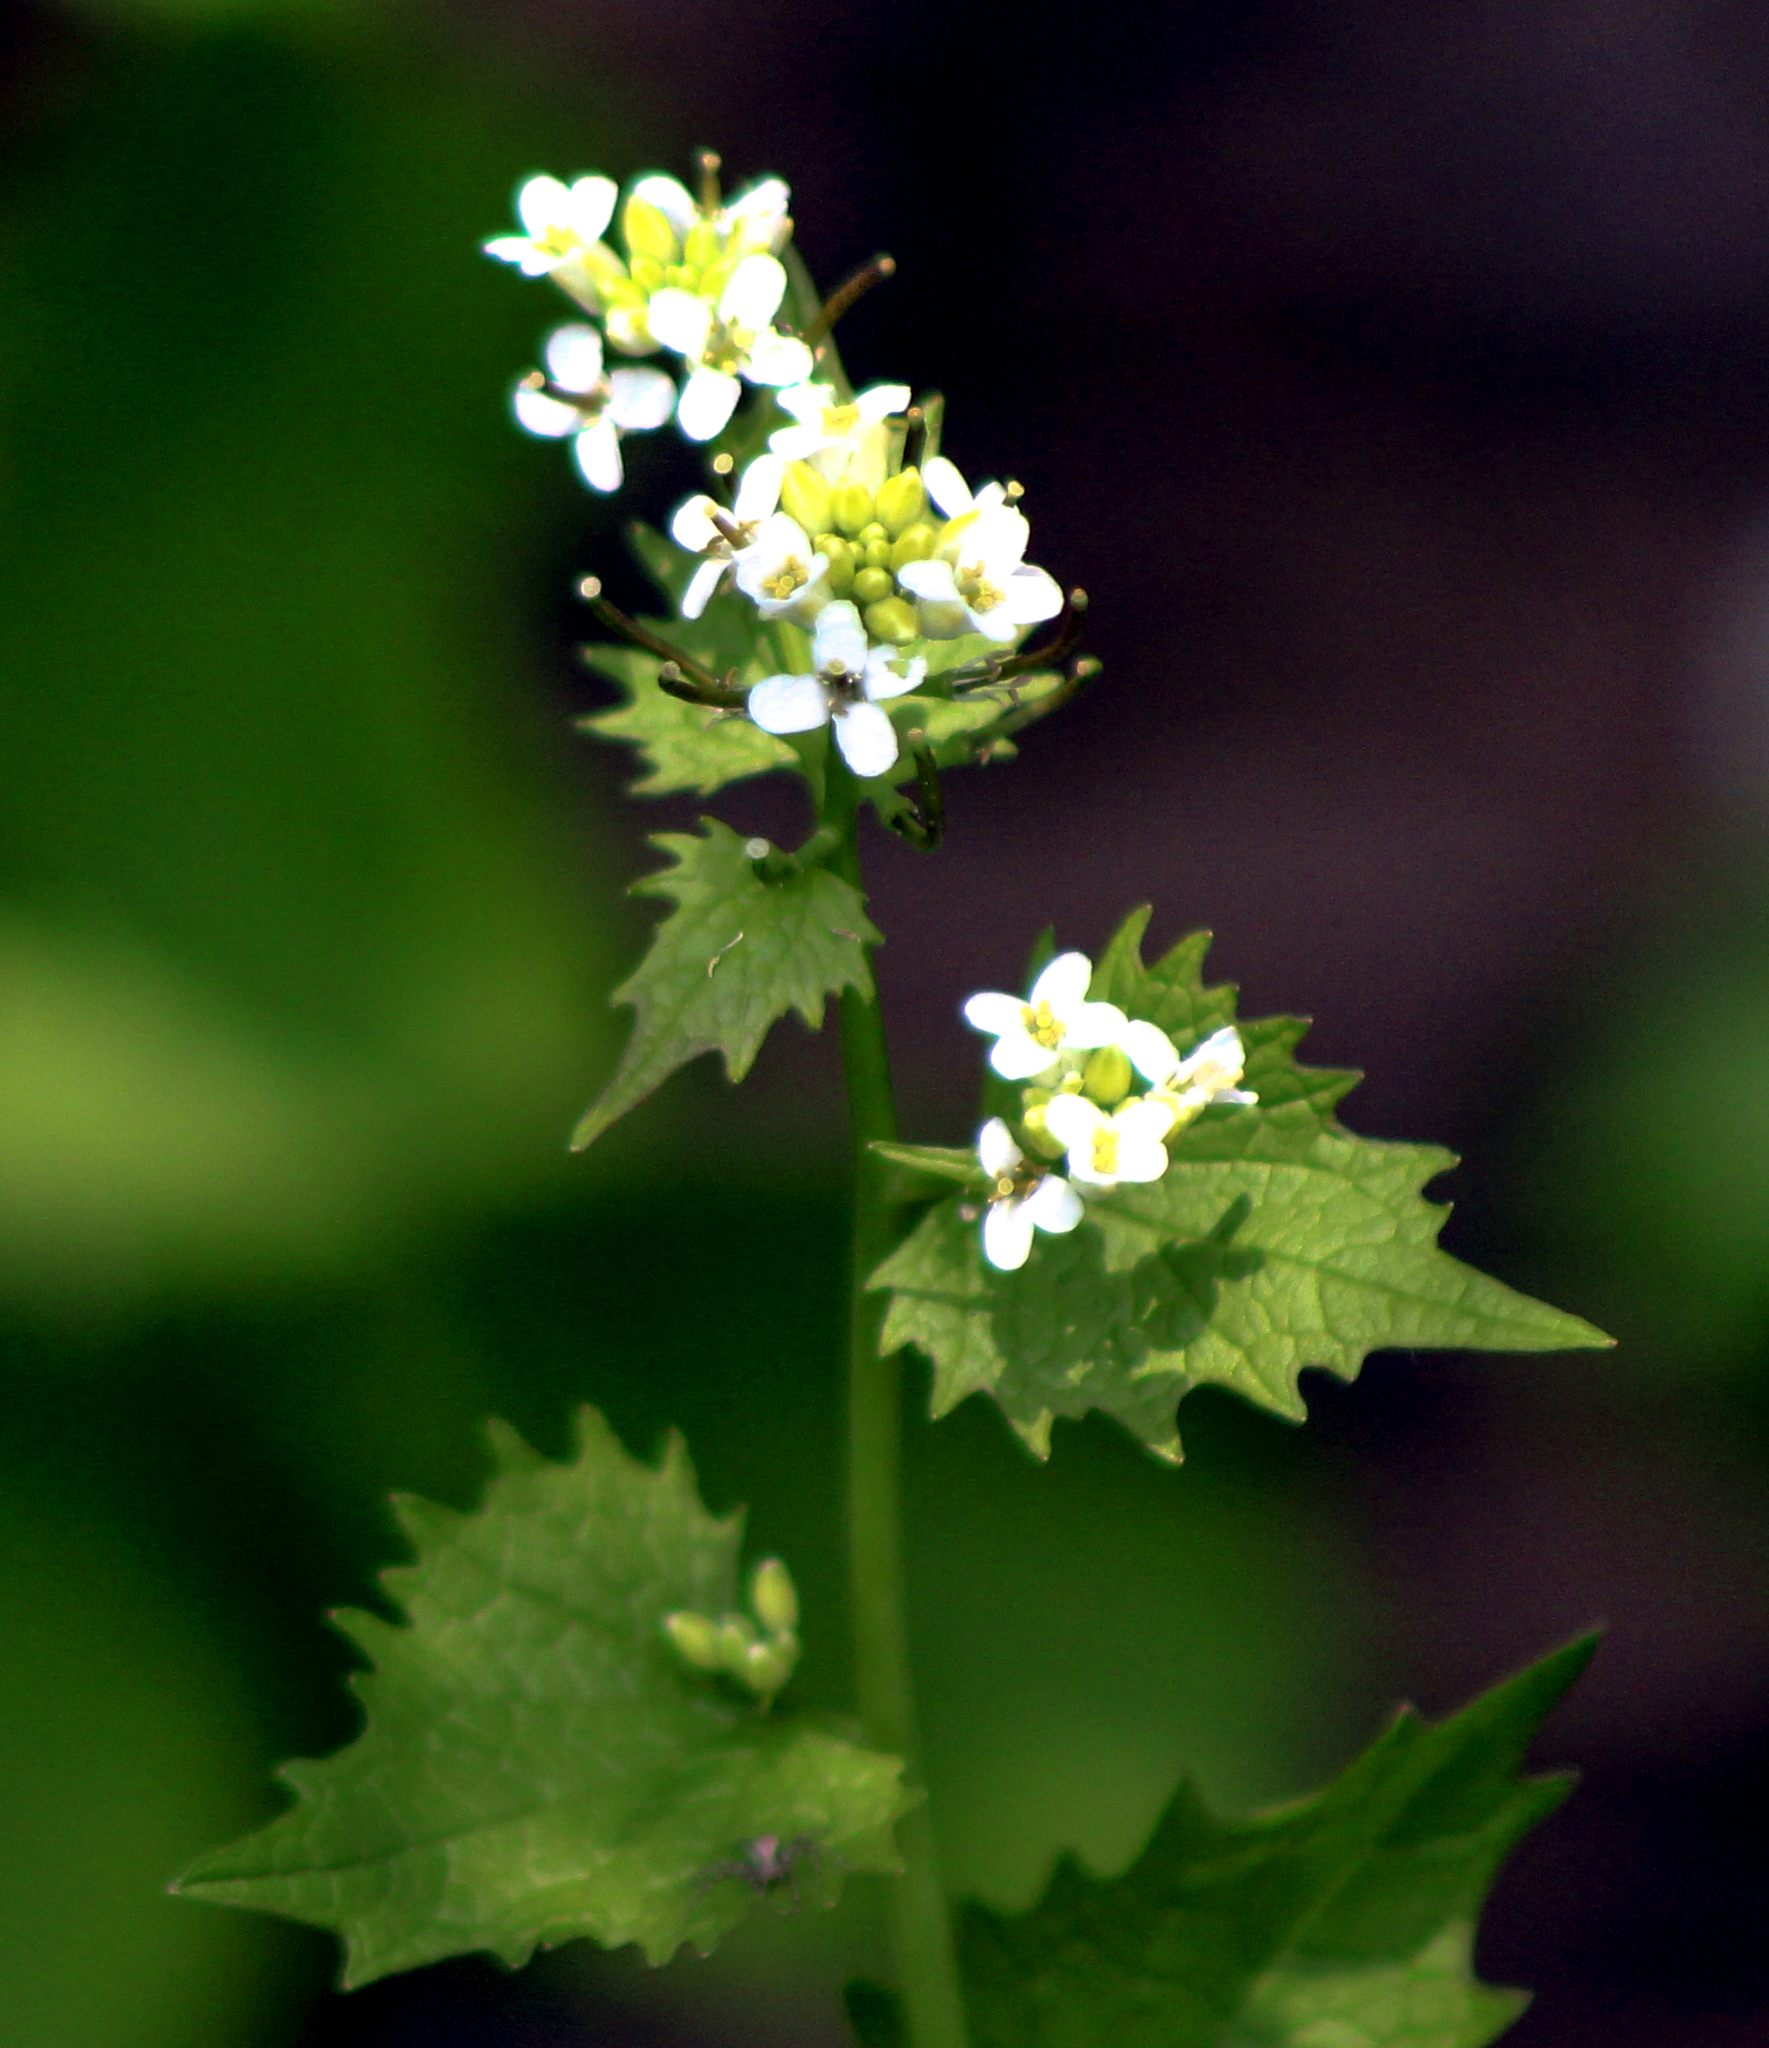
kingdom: Plantae
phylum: Tracheophyta
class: Magnoliopsida
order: Brassicales
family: Brassicaceae
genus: Alliaria
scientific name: Alliaria petiolata
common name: Garlic mustard
